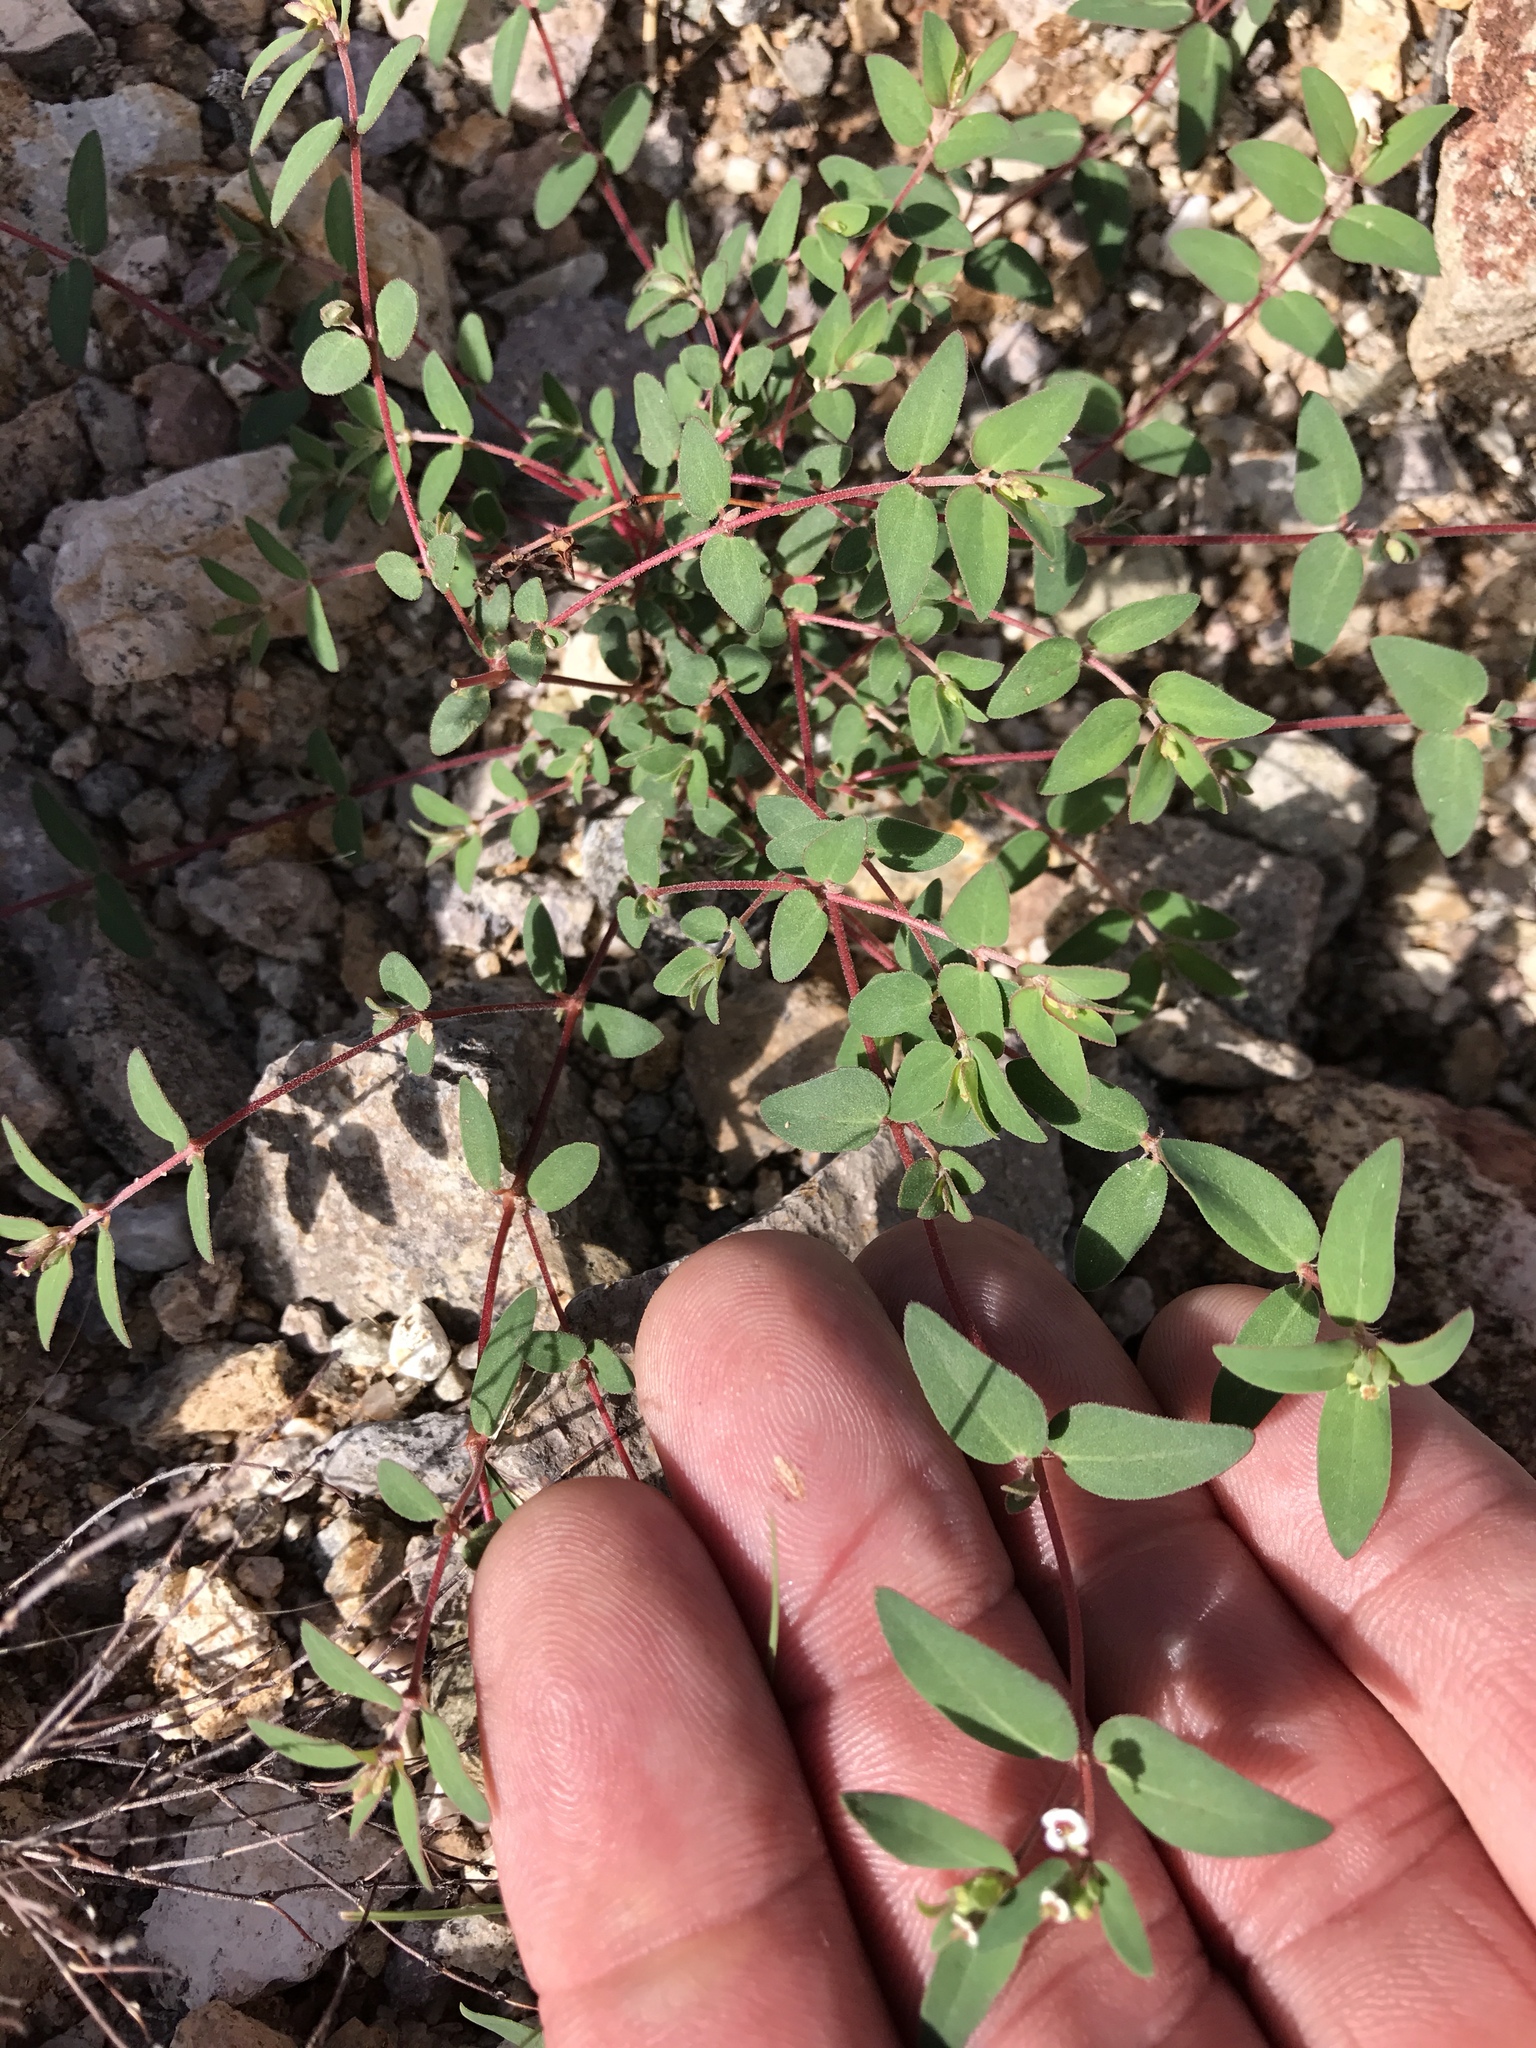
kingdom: Plantae
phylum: Tracheophyta
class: Magnoliopsida
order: Malpighiales
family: Euphorbiaceae
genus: Euphorbia
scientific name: Euphorbia capitellata
